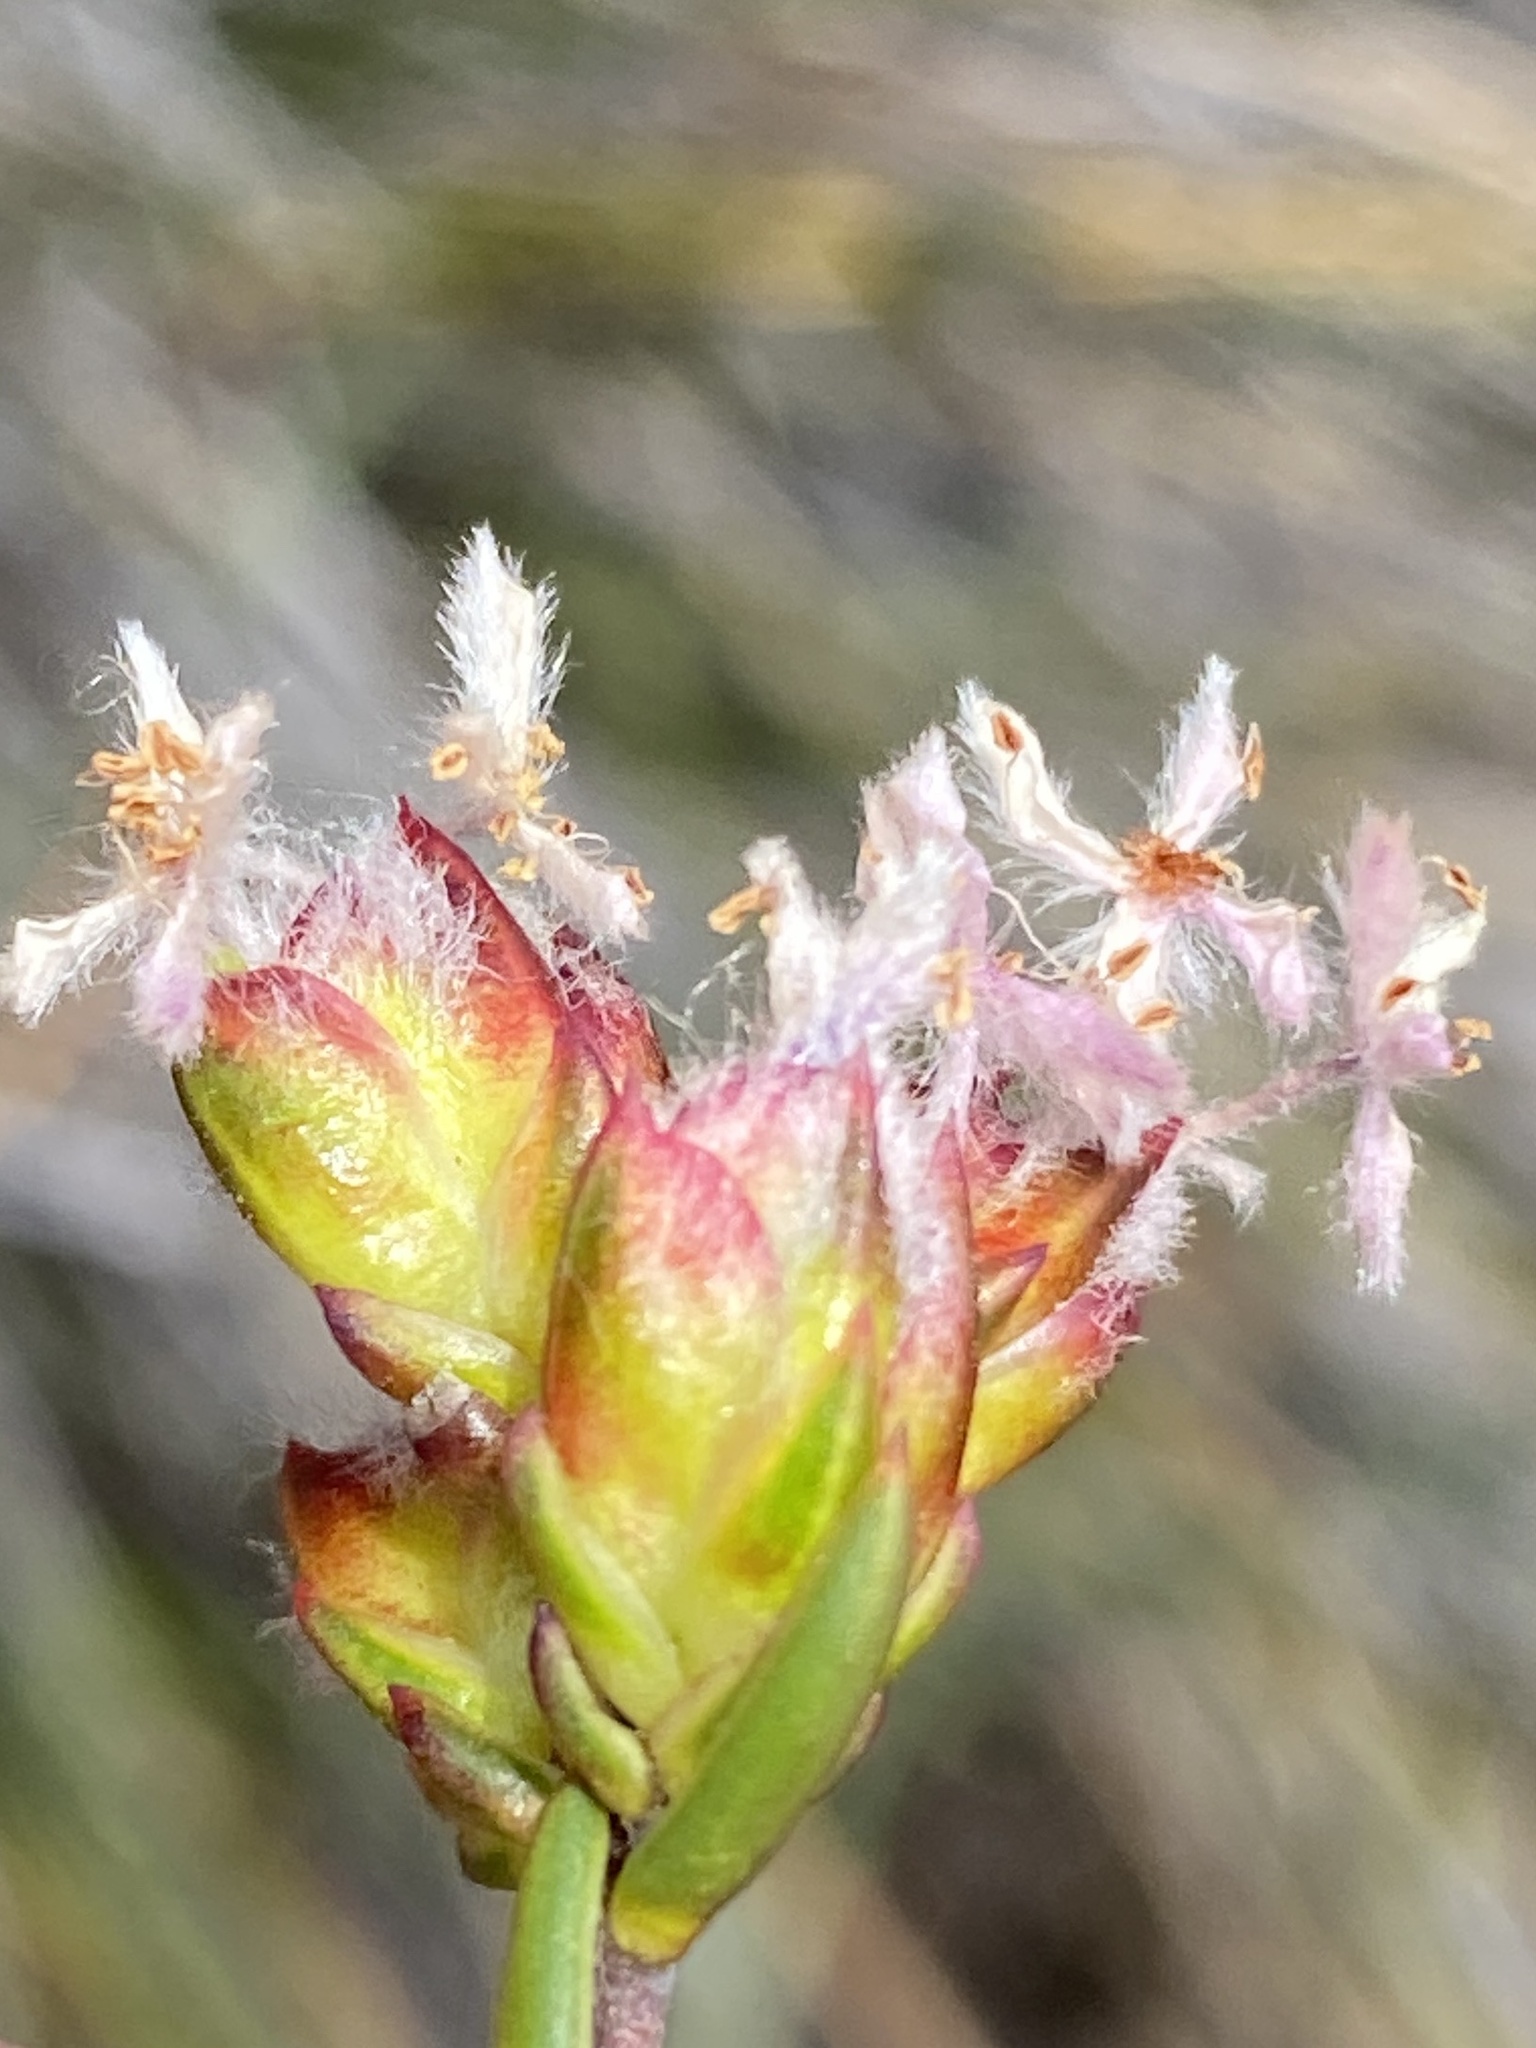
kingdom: Plantae
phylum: Tracheophyta
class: Magnoliopsida
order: Malvales
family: Thymelaeaceae
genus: Lachnaea
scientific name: Lachnaea marlothii
